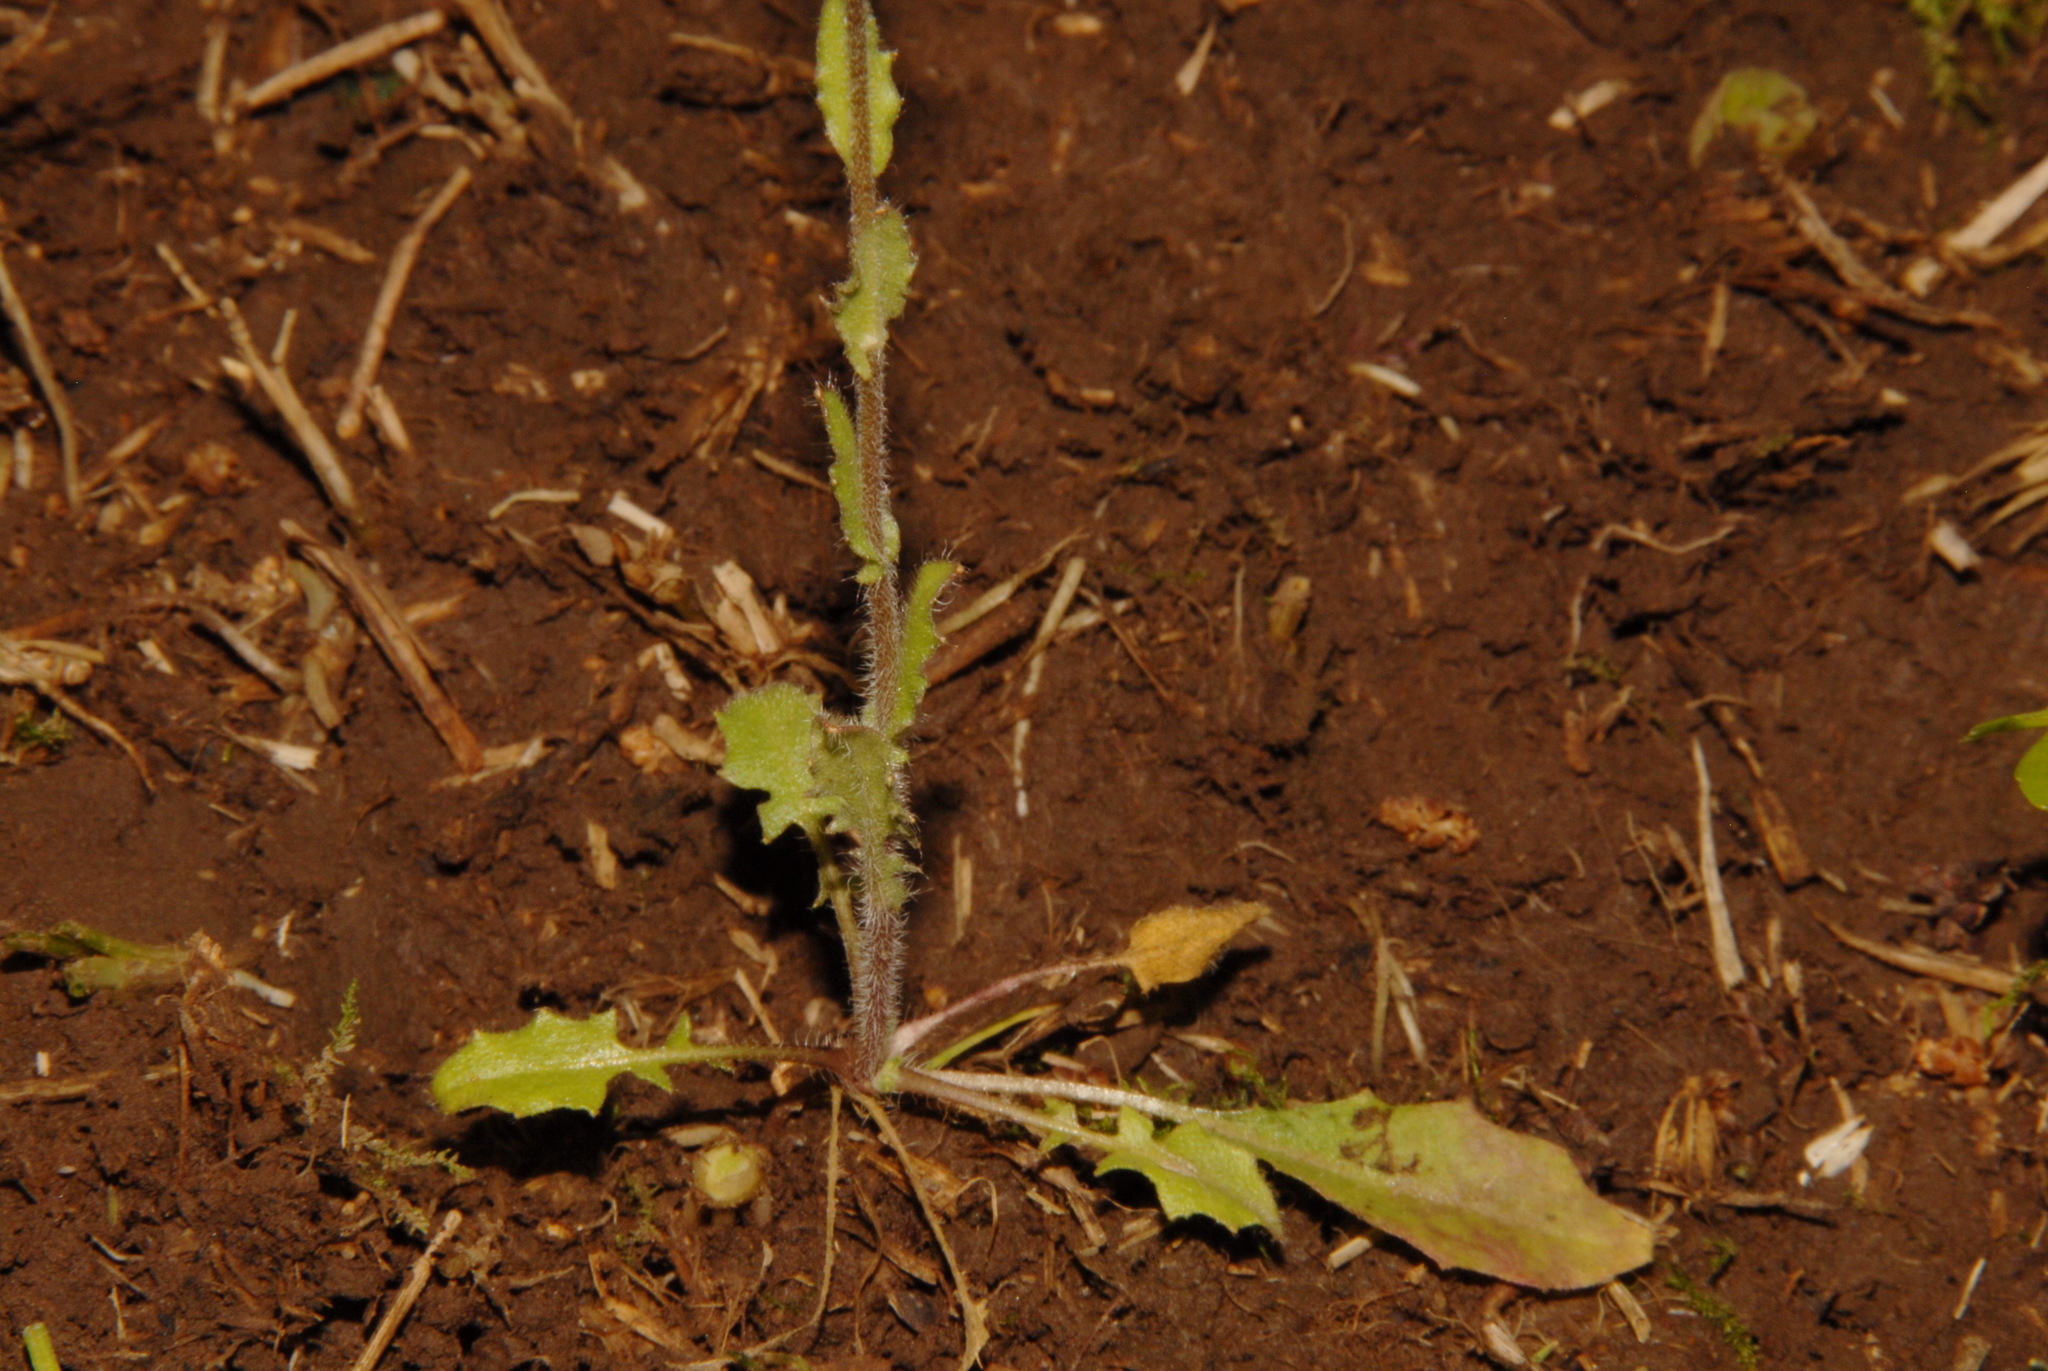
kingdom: Plantae
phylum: Tracheophyta
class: Magnoliopsida
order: Brassicales
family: Brassicaceae
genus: Paysonia
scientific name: Paysonia lyrata
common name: Lyrate bladderpod
